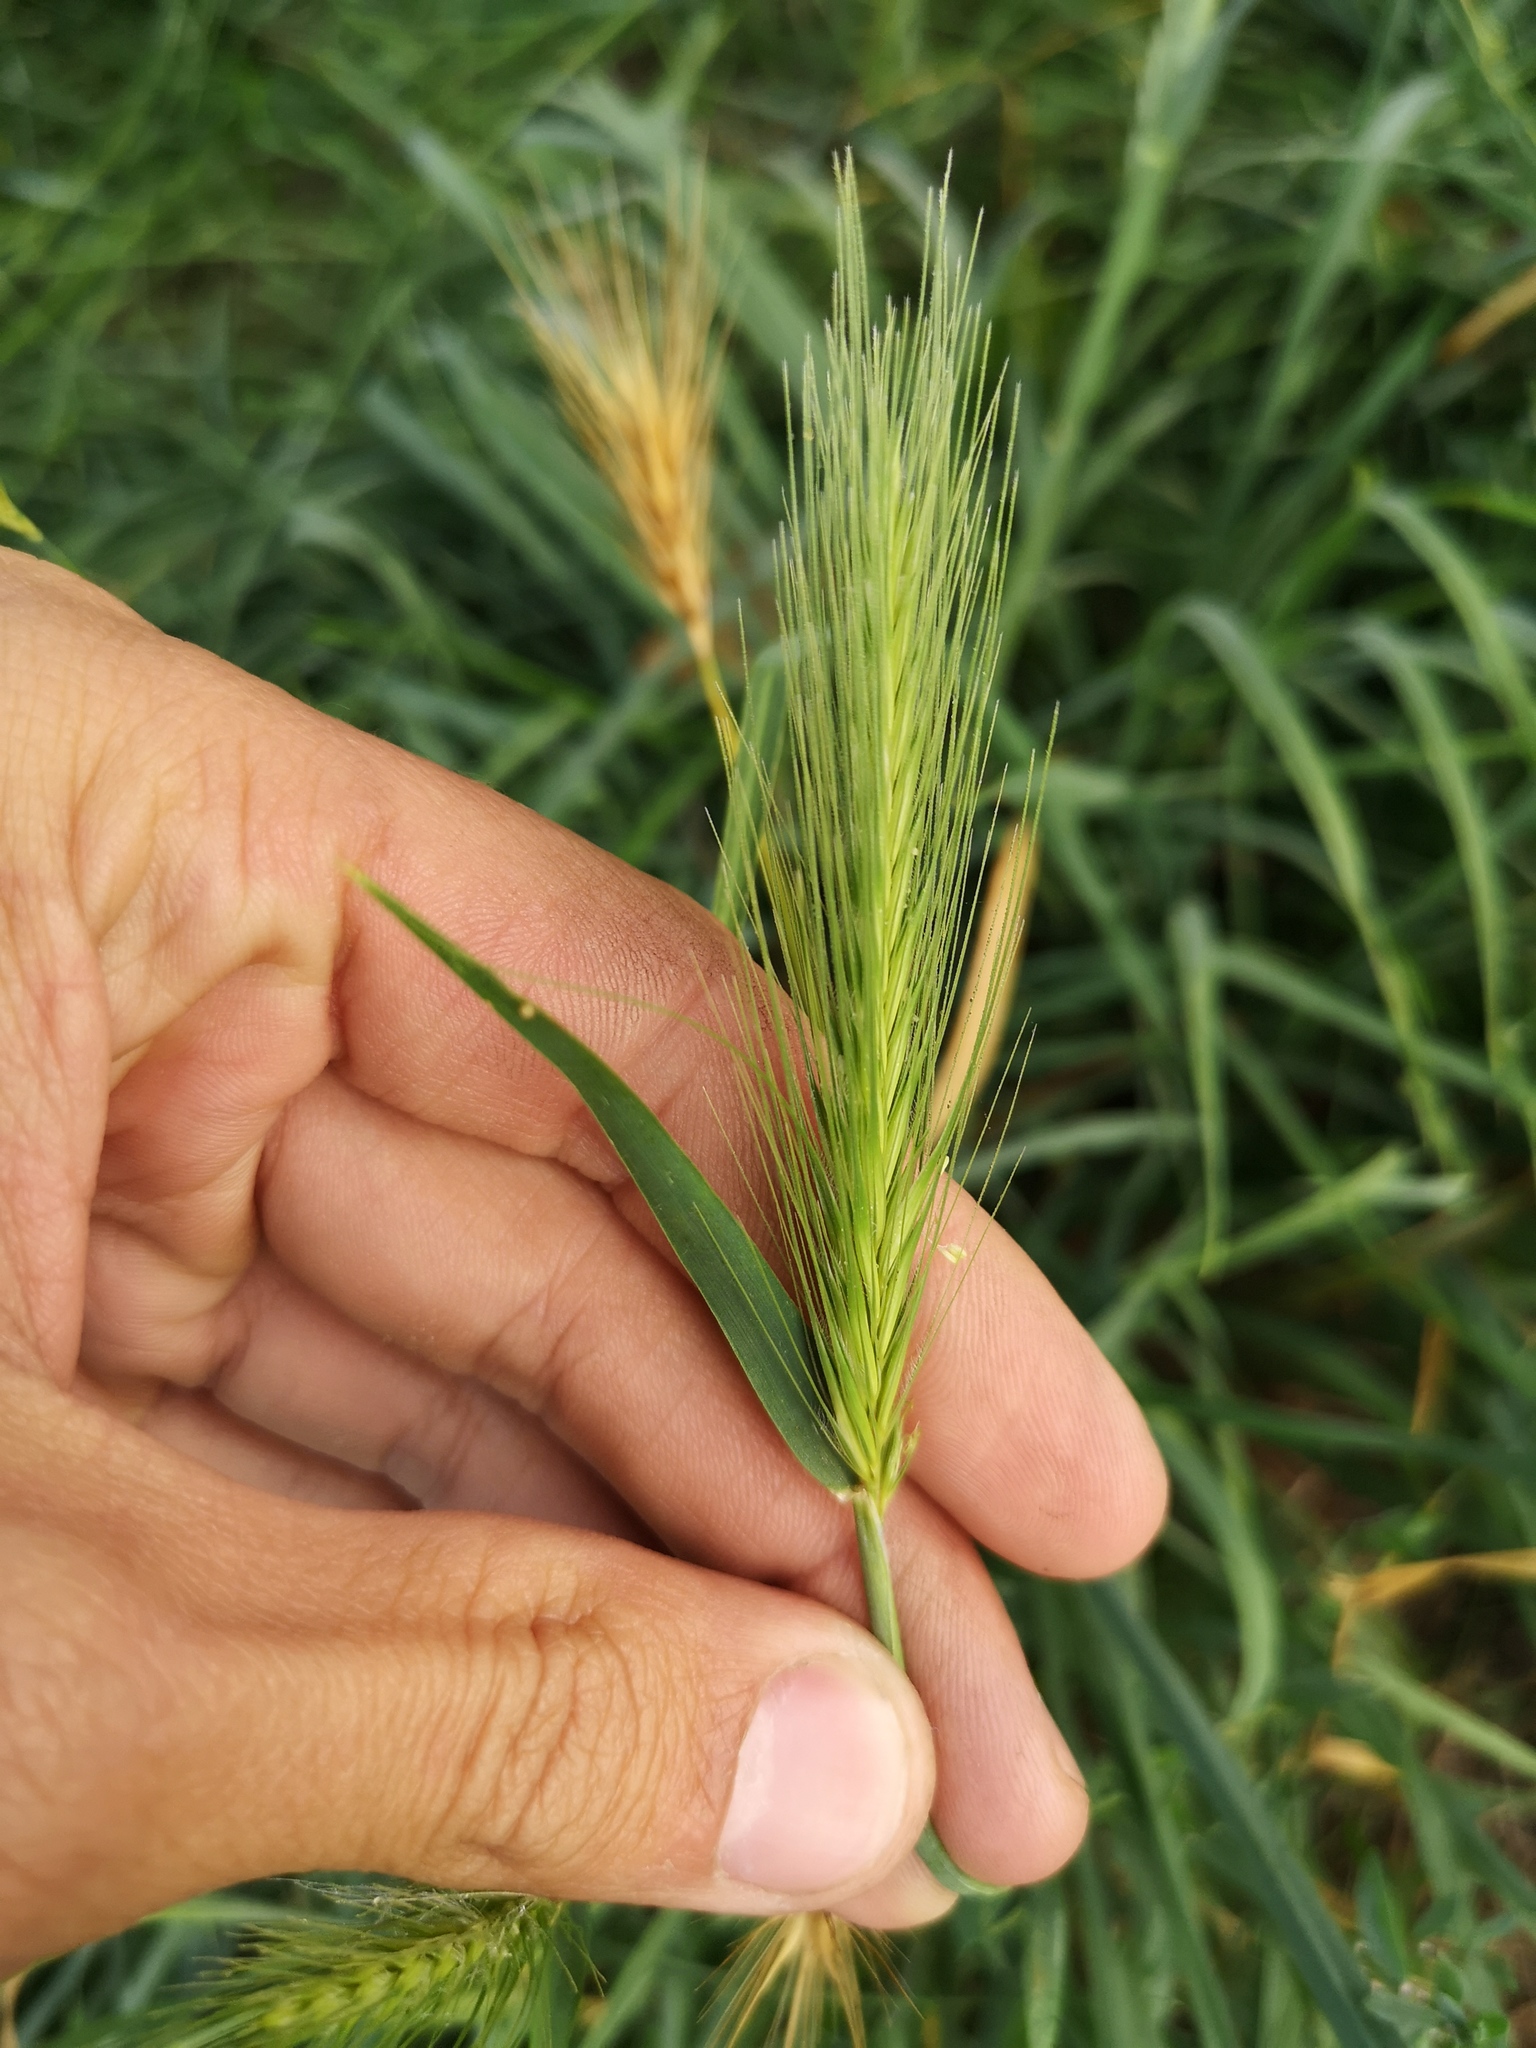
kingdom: Plantae
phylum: Tracheophyta
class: Liliopsida
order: Poales
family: Poaceae
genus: Hordeum
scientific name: Hordeum murinum
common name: Wall barley
